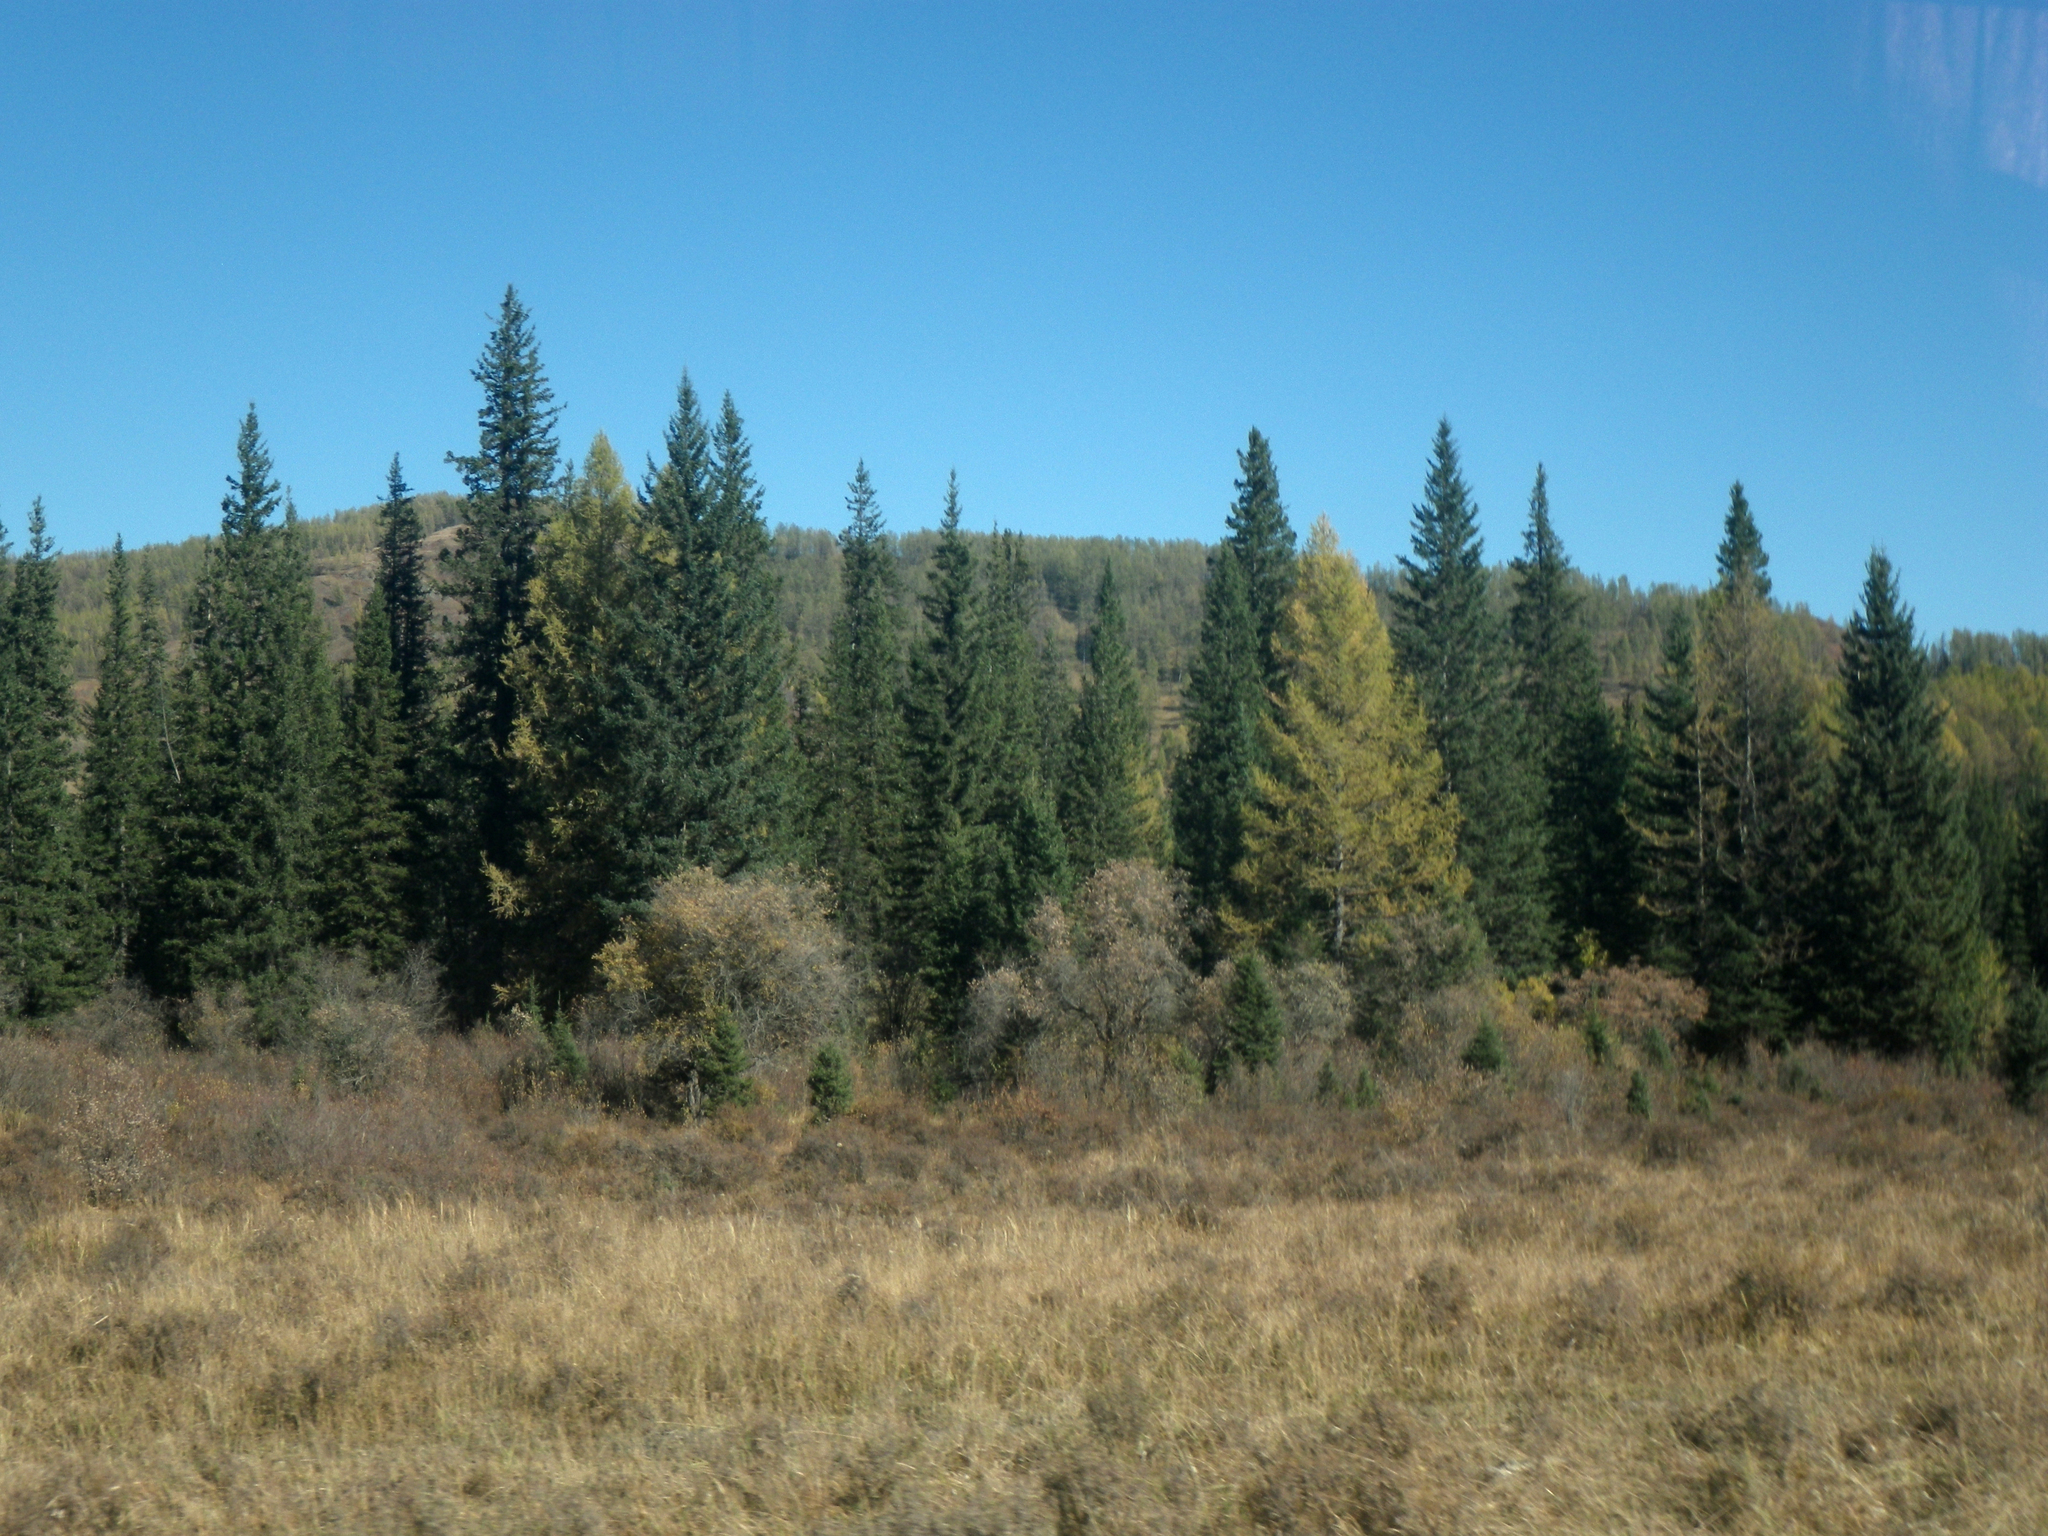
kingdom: Plantae
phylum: Tracheophyta
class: Pinopsida
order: Pinales
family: Pinaceae
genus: Larix
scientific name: Larix sibirica
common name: Siberian larch
